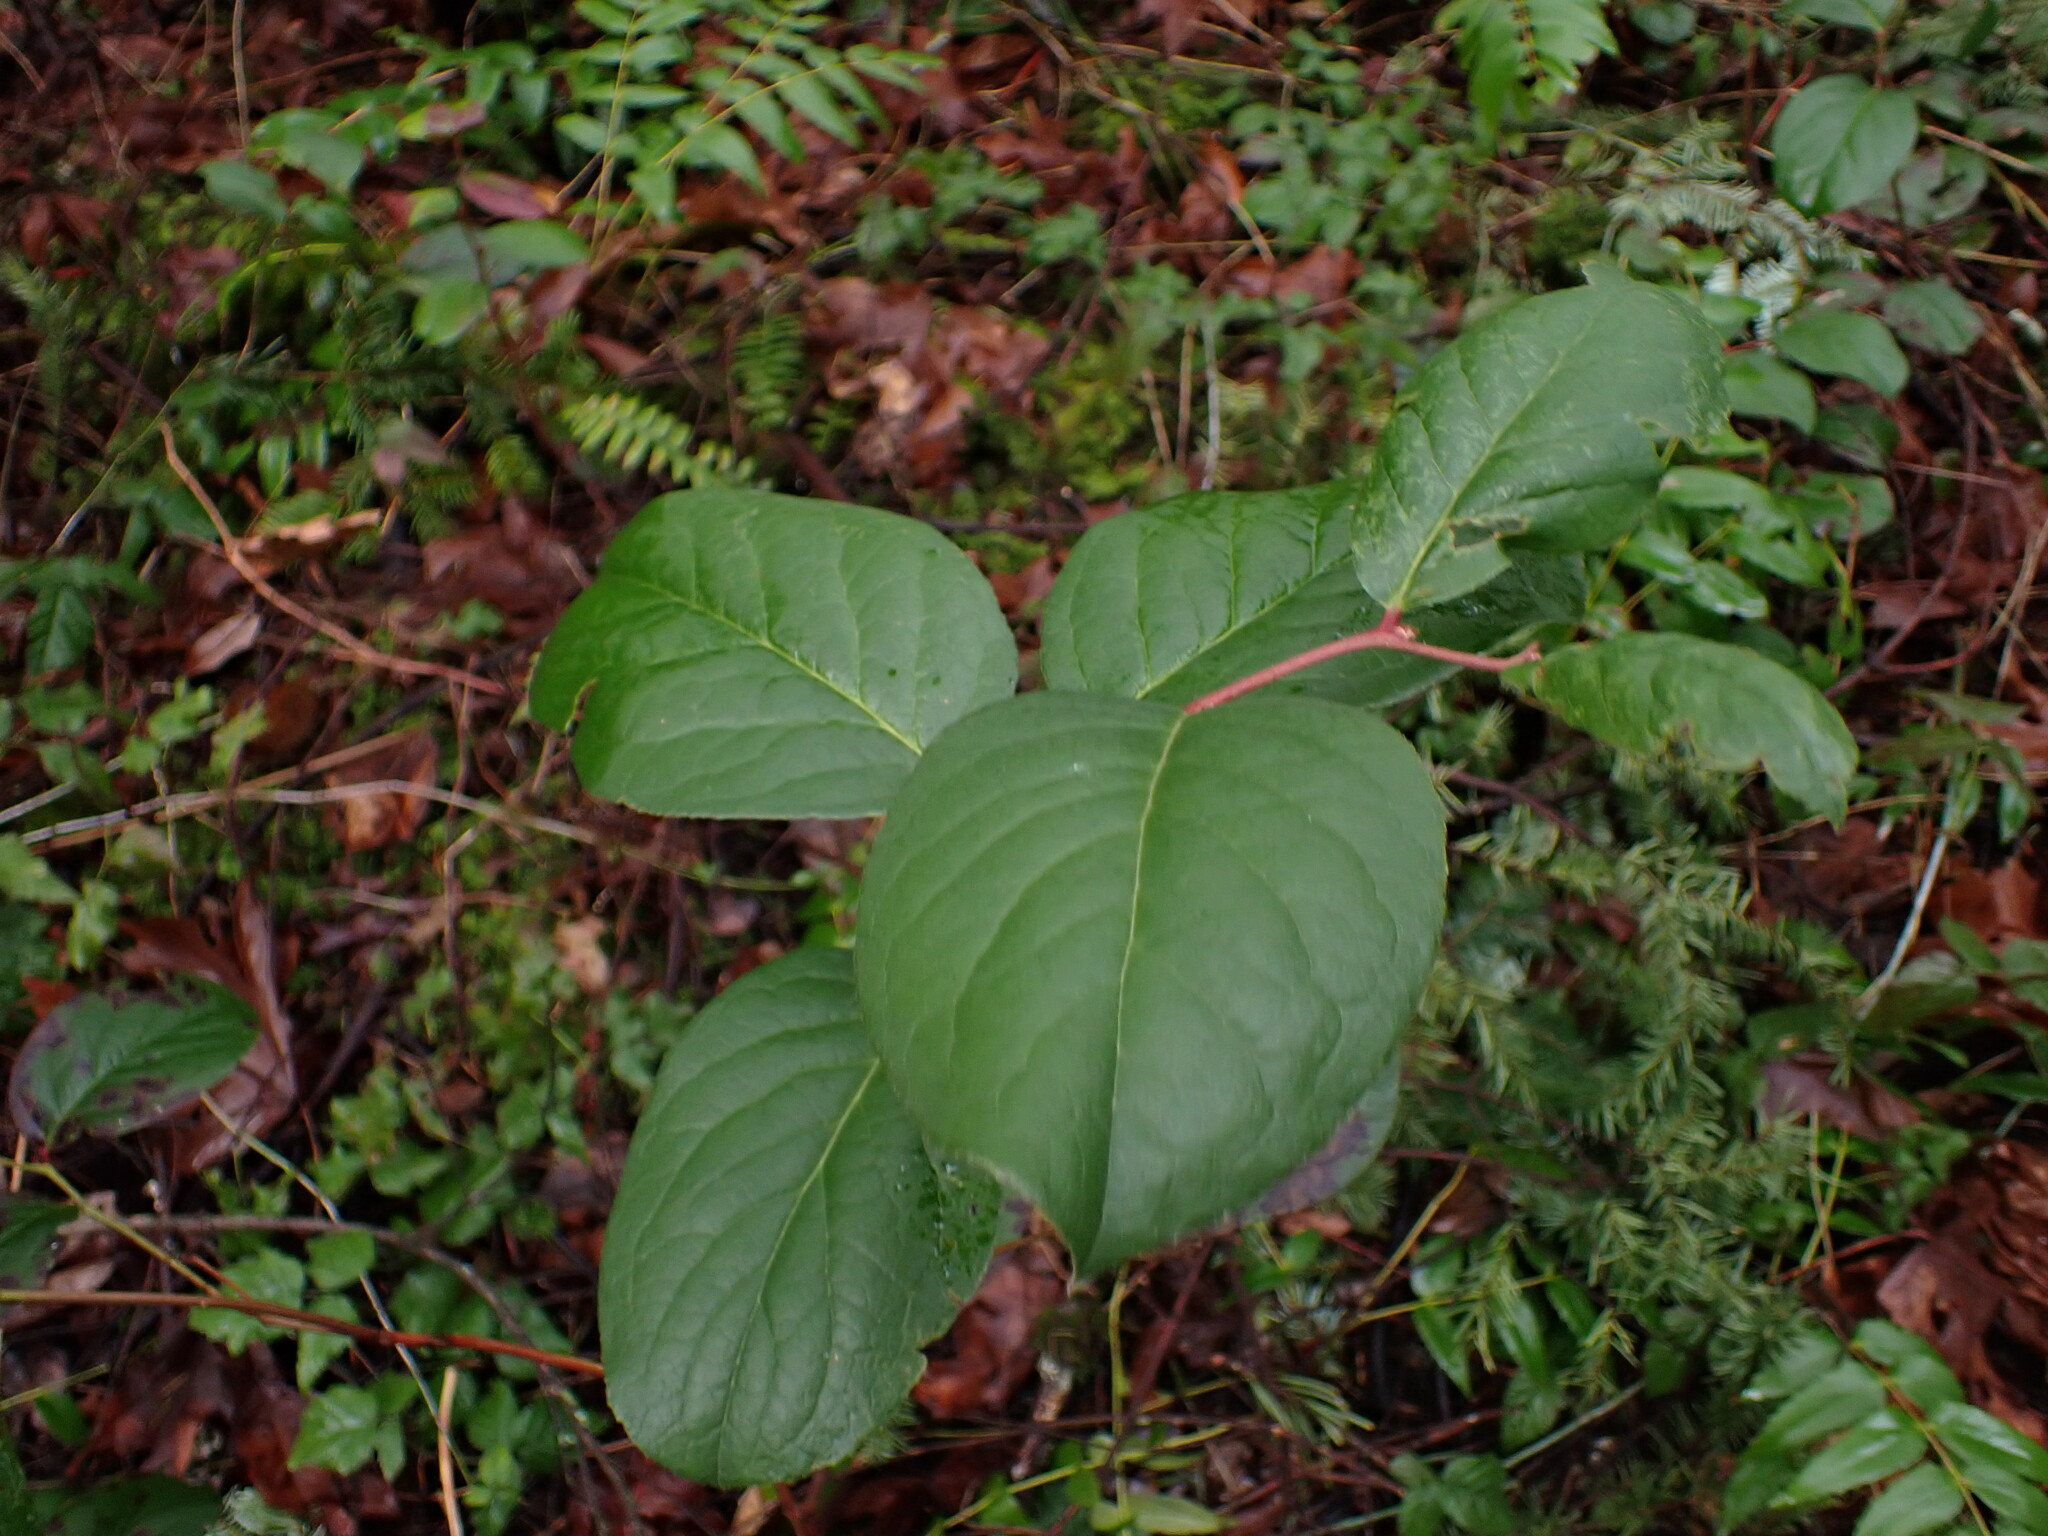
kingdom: Plantae
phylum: Tracheophyta
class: Magnoliopsida
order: Ericales
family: Ericaceae
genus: Gaultheria
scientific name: Gaultheria shallon
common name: Shallon
